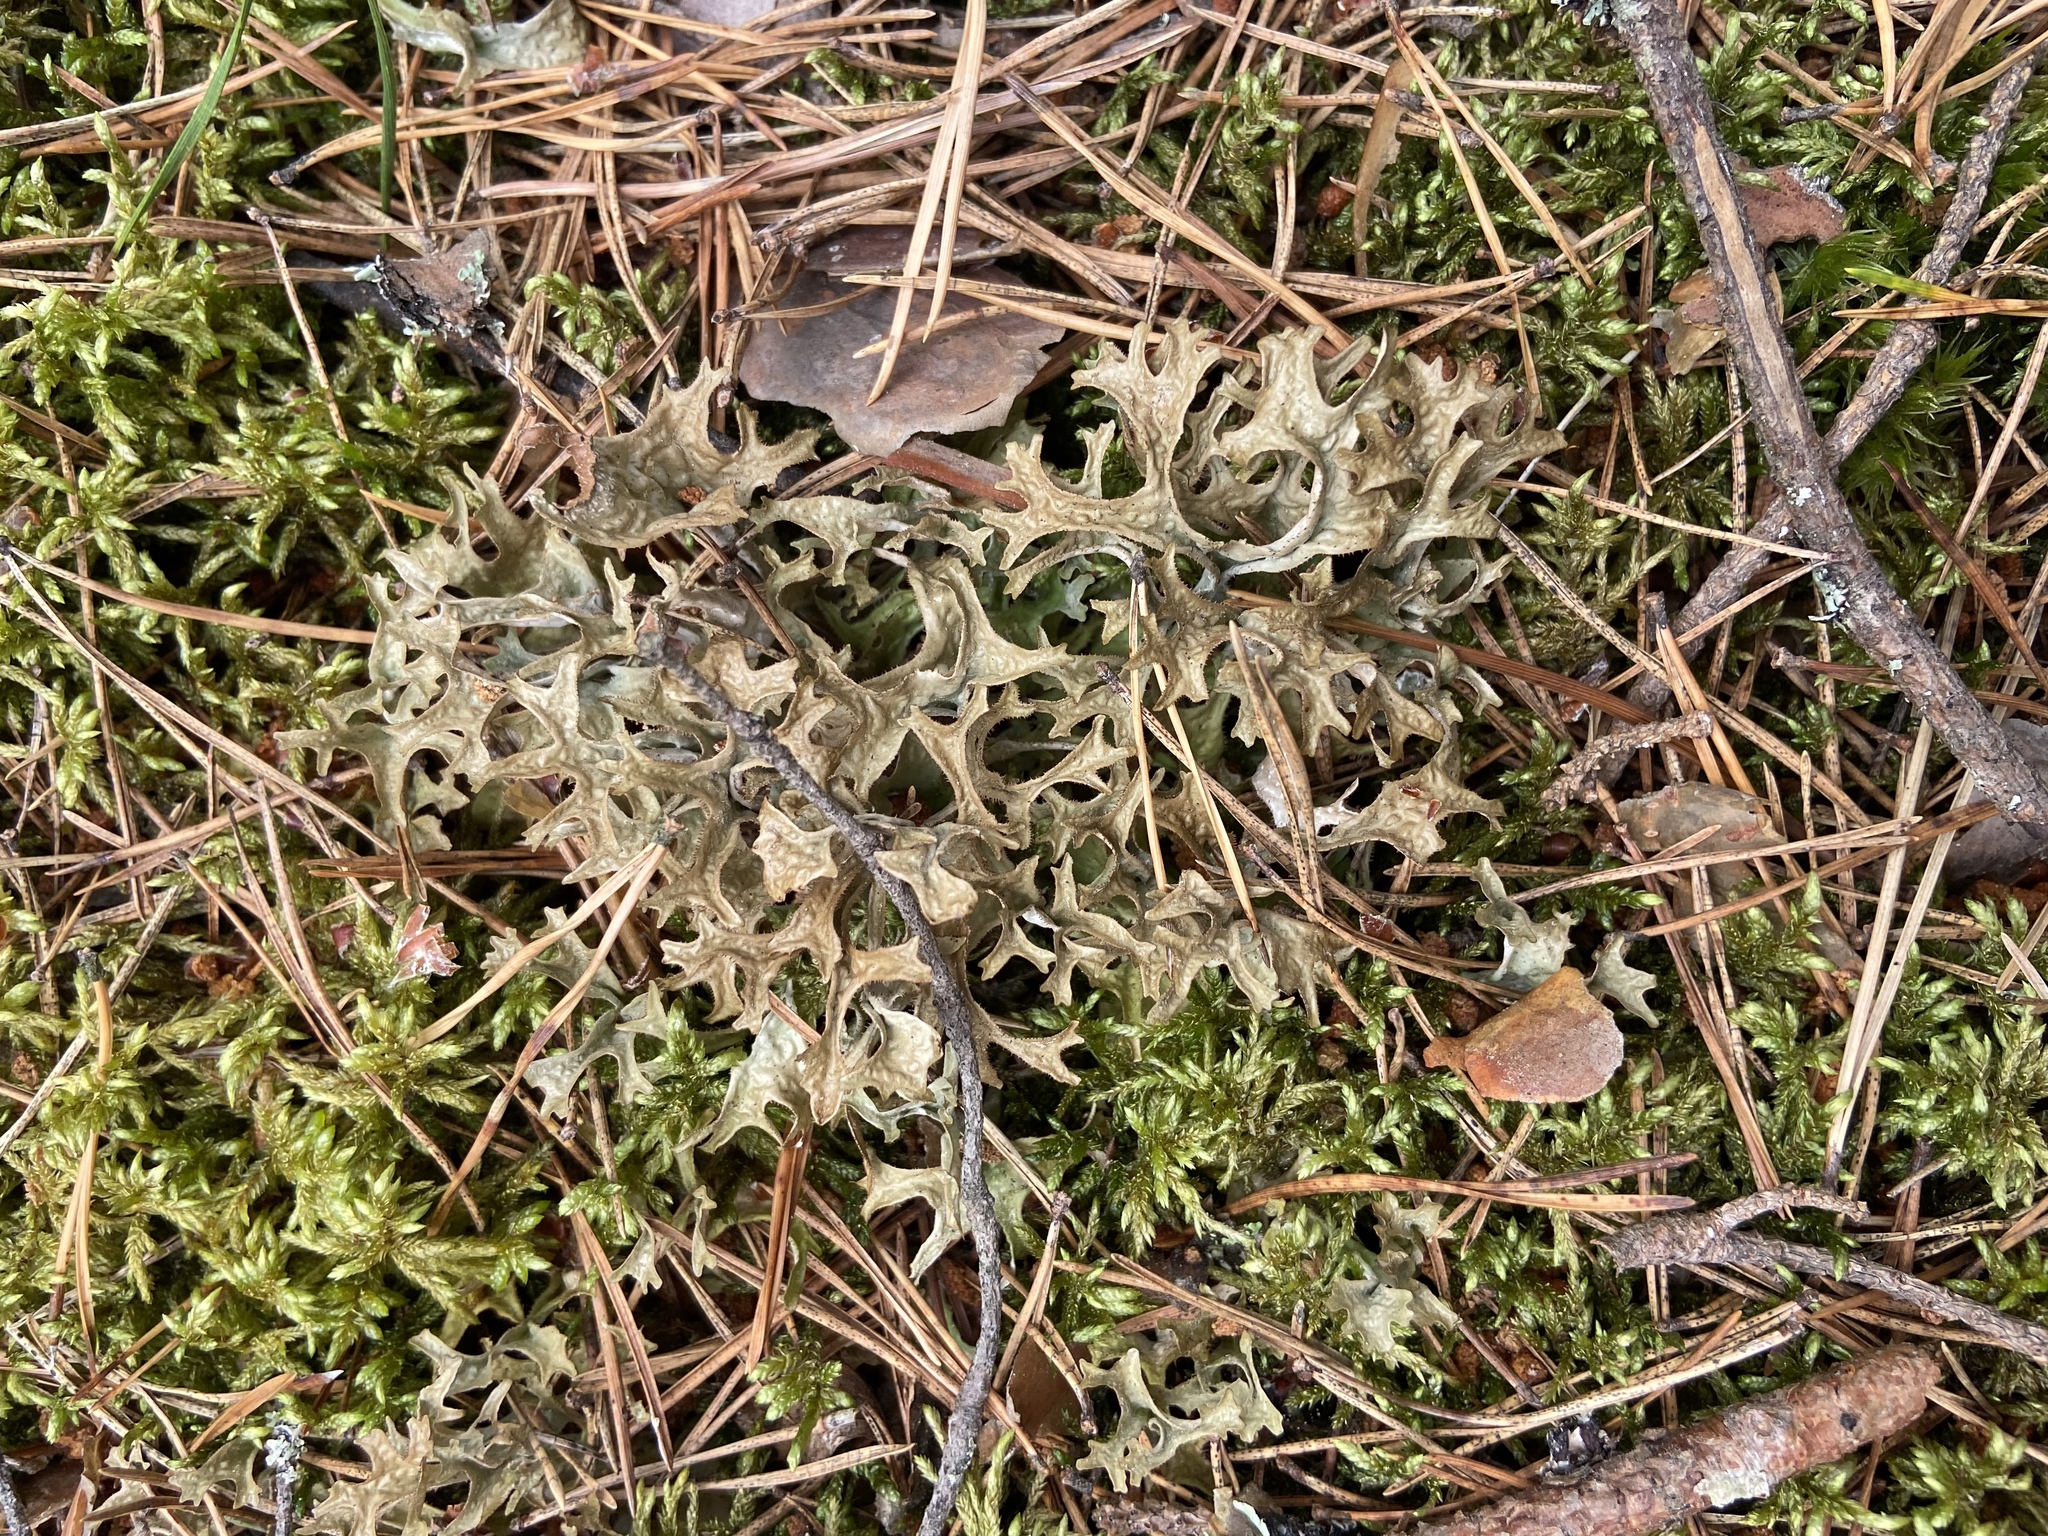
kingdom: Fungi
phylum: Ascomycota
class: Lecanoromycetes
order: Lecanorales
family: Parmeliaceae
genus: Cetraria
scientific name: Cetraria islandica
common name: Iceland lichen
